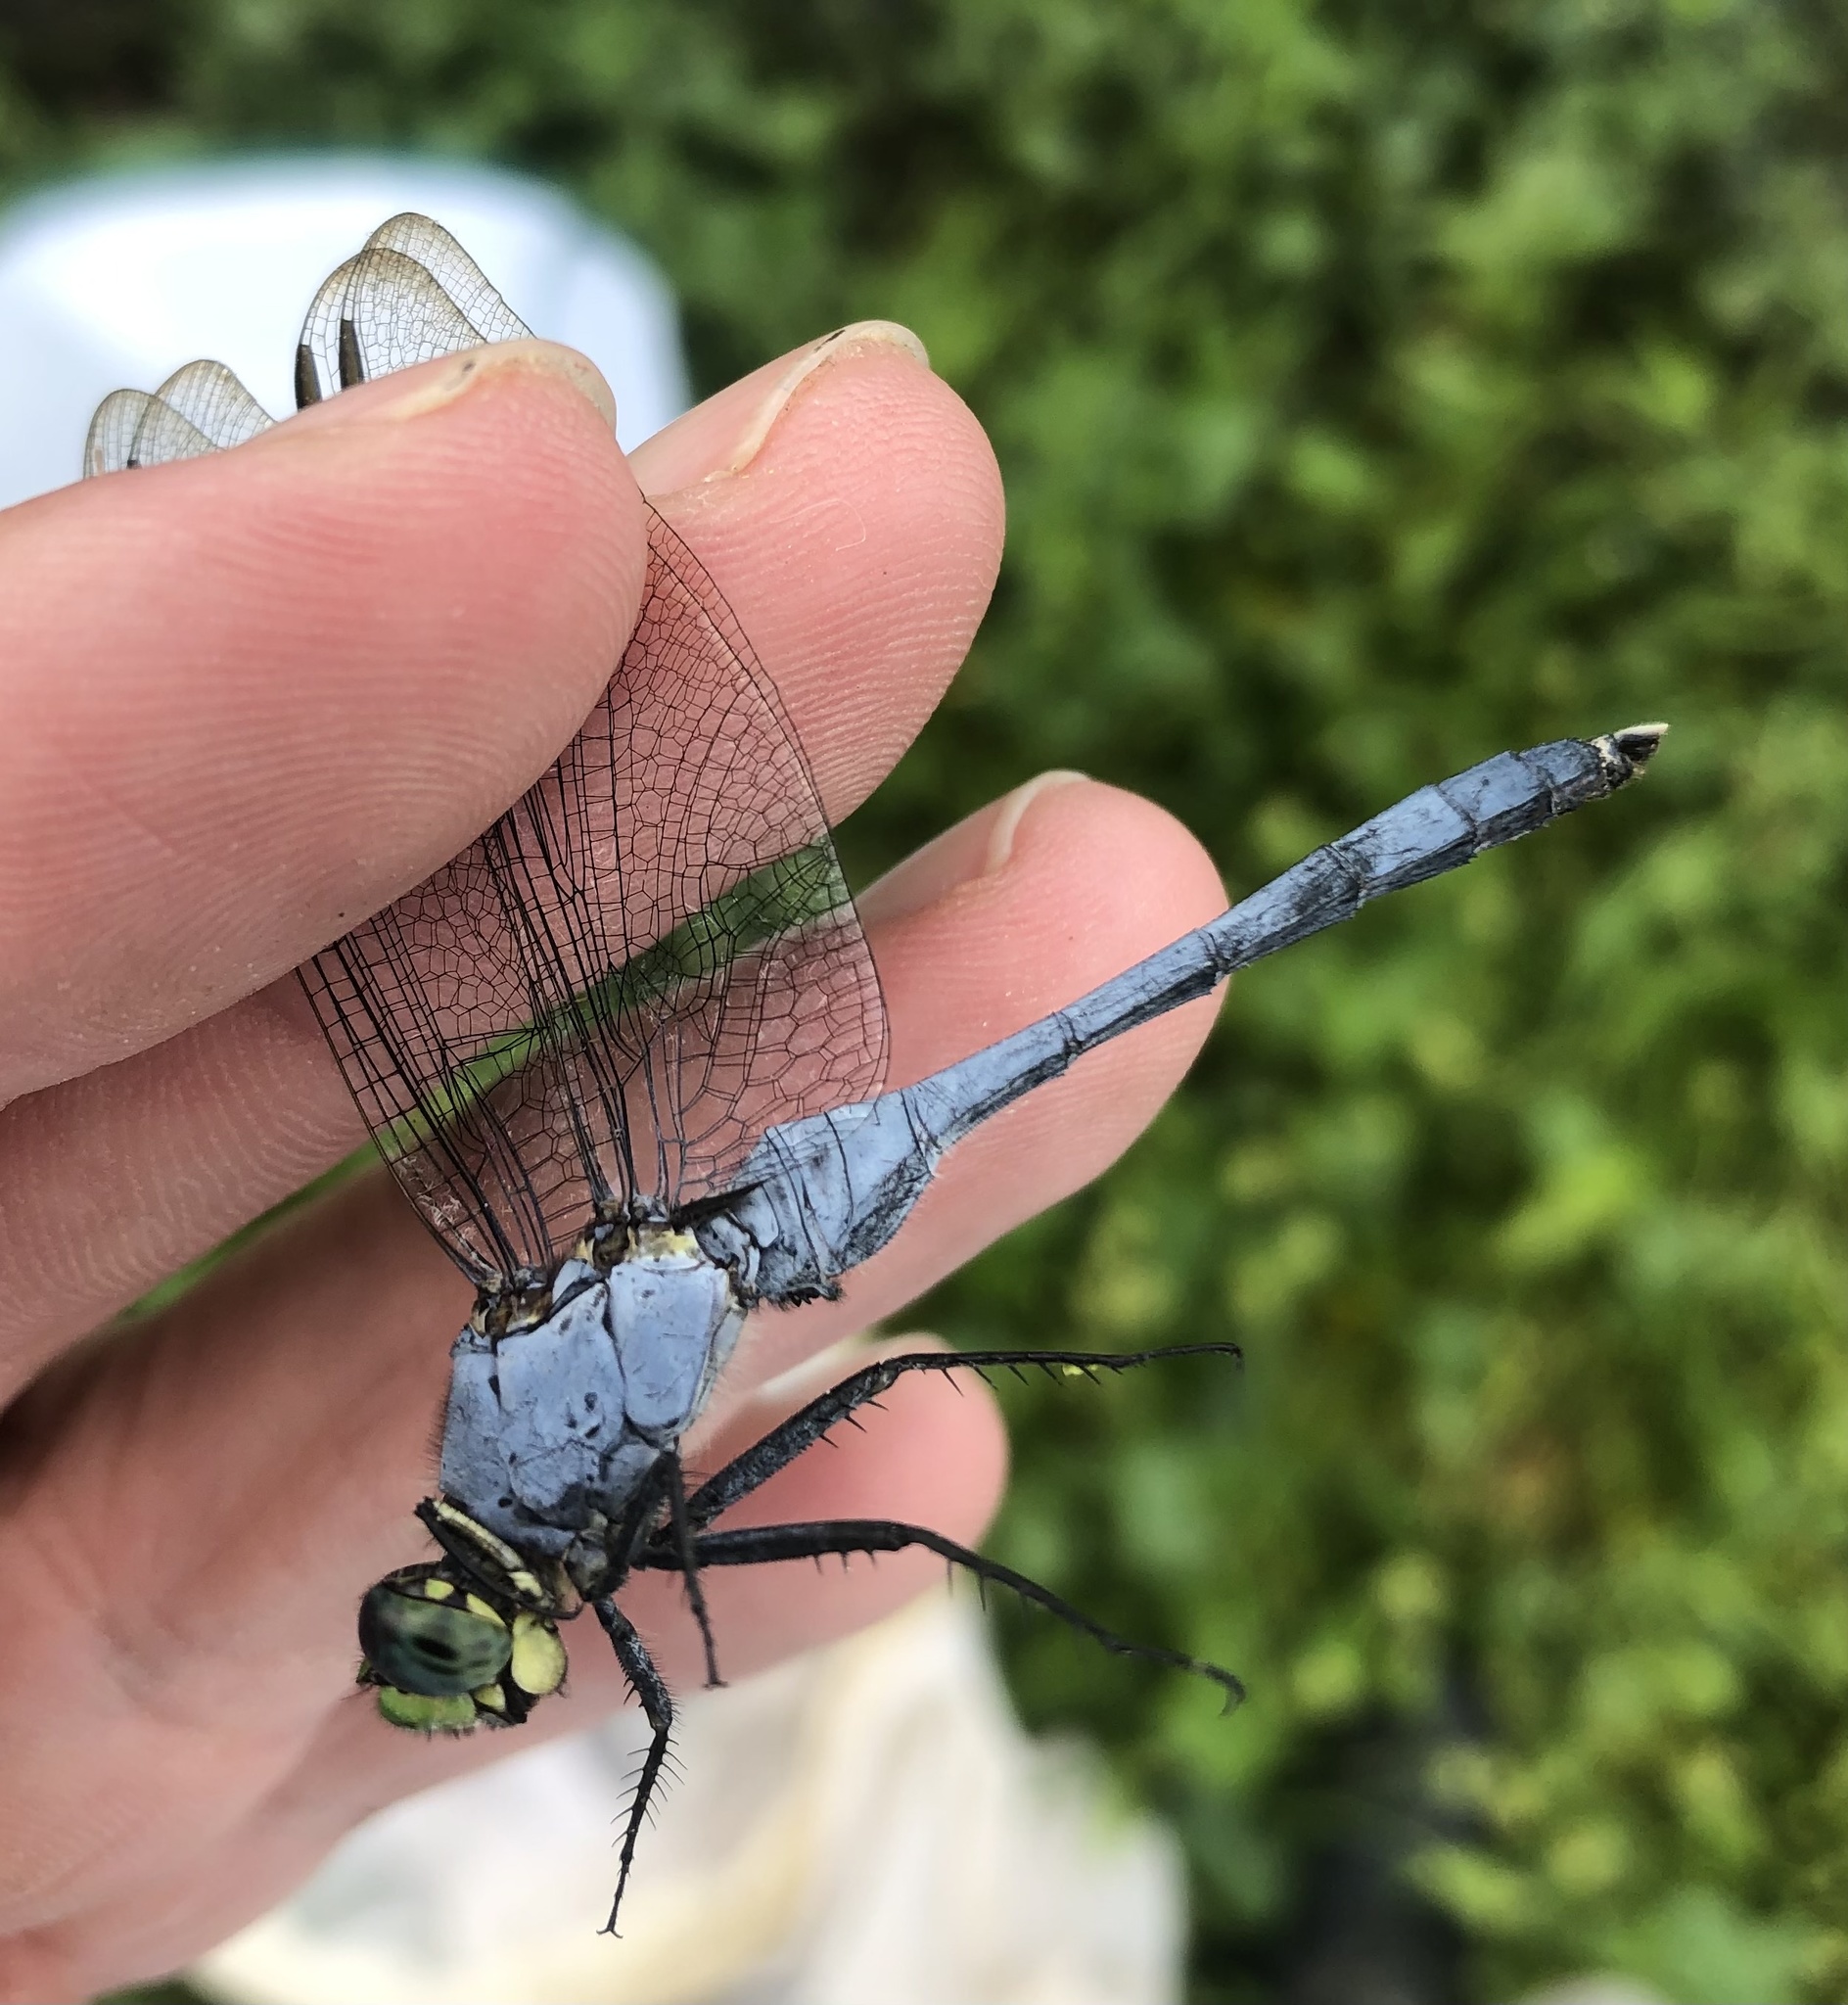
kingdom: Animalia
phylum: Arthropoda
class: Insecta
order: Odonata
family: Libellulidae
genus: Erythemis
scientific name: Erythemis simplicicollis
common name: Eastern pondhawk
